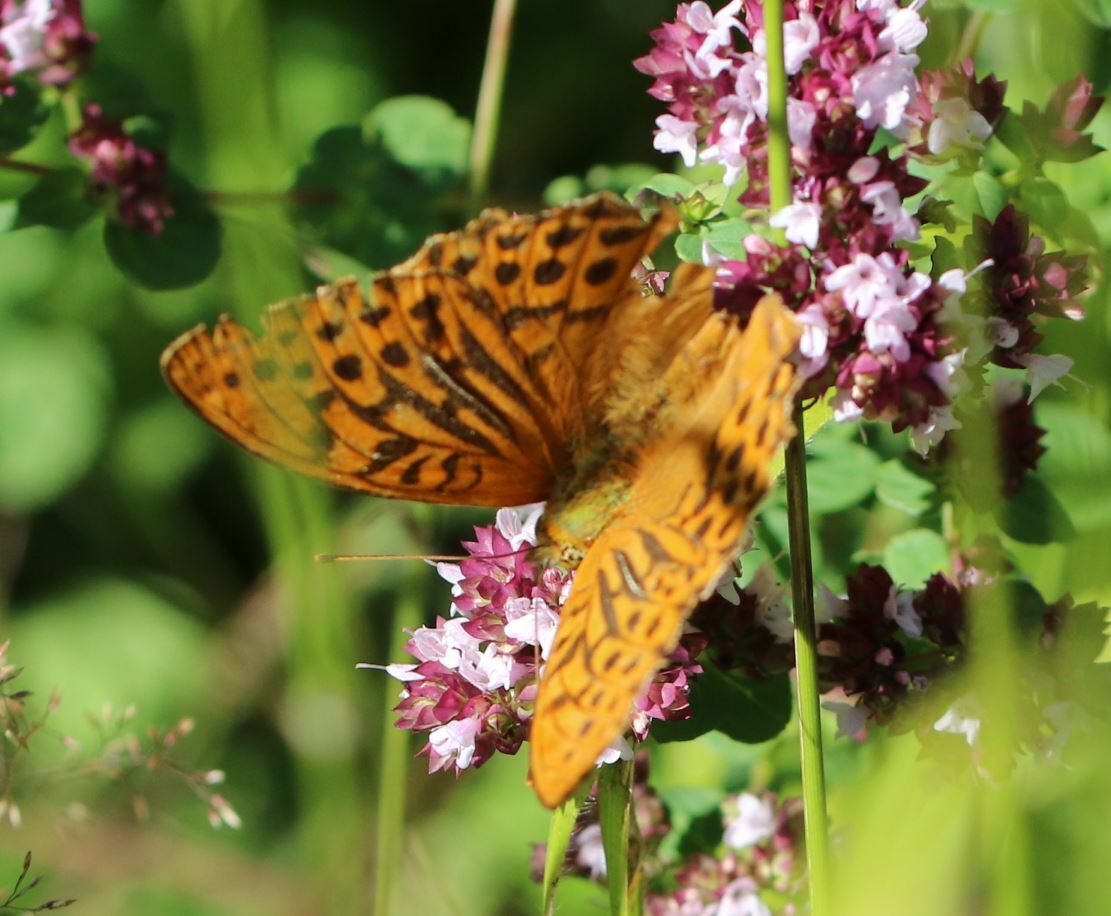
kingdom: Animalia
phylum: Arthropoda
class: Insecta
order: Lepidoptera
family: Nymphalidae
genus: Argynnis
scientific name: Argynnis paphia
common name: Silver-washed fritillary
